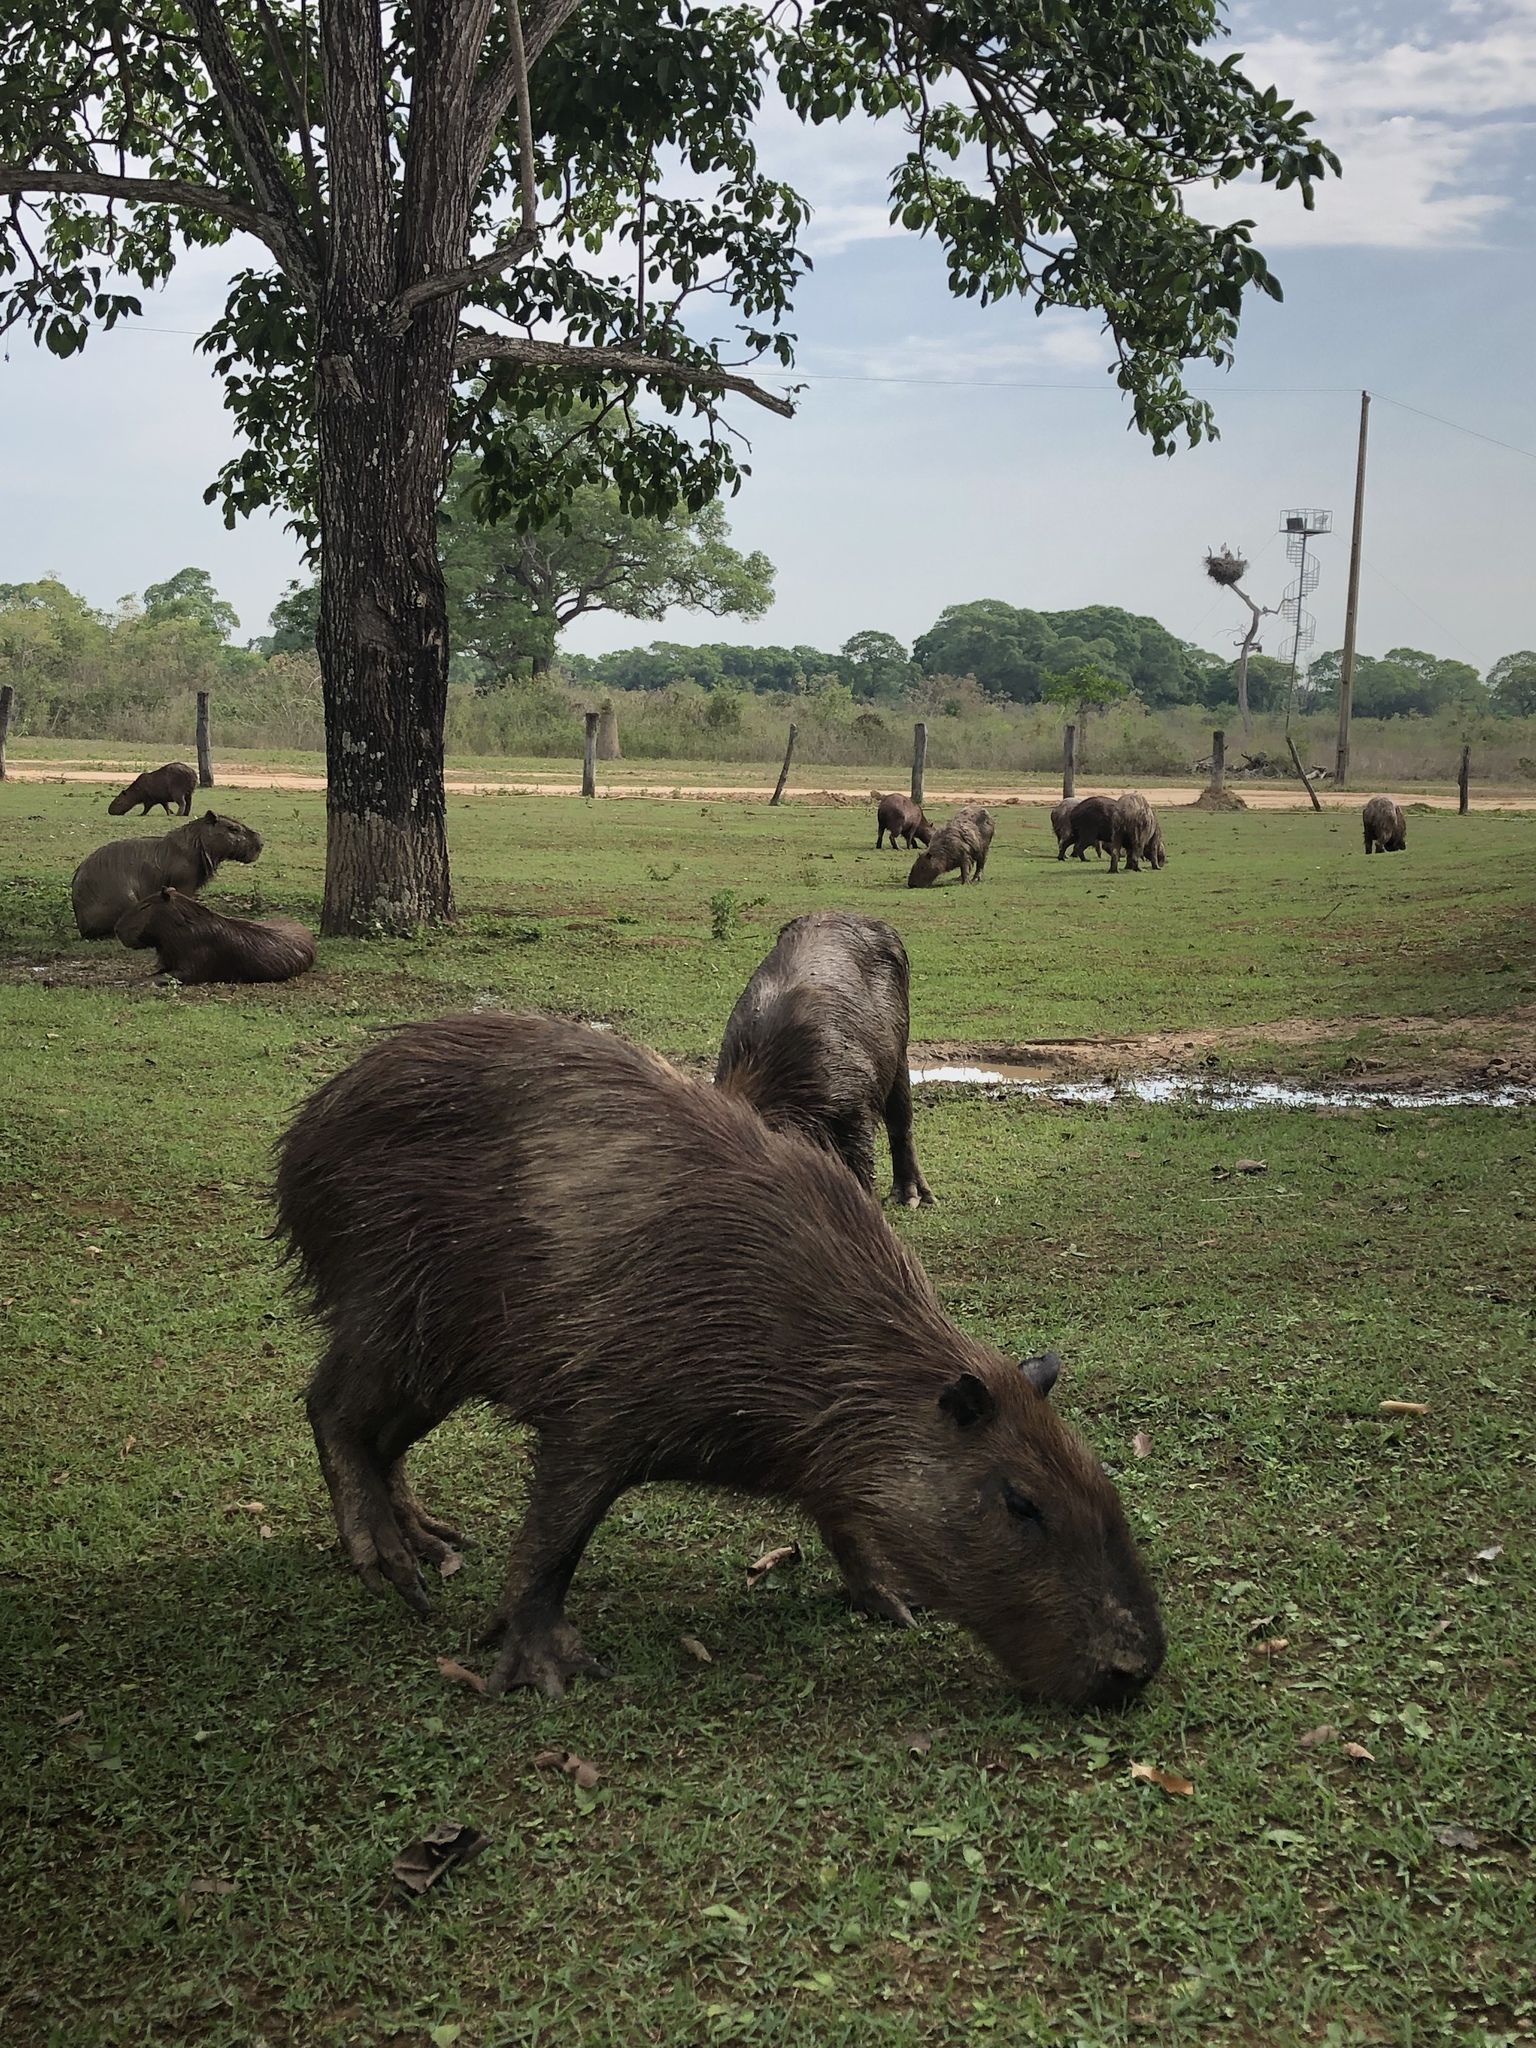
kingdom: Animalia
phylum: Chordata
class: Mammalia
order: Rodentia
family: Caviidae
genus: Hydrochoerus
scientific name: Hydrochoerus hydrochaeris
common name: Capybara
